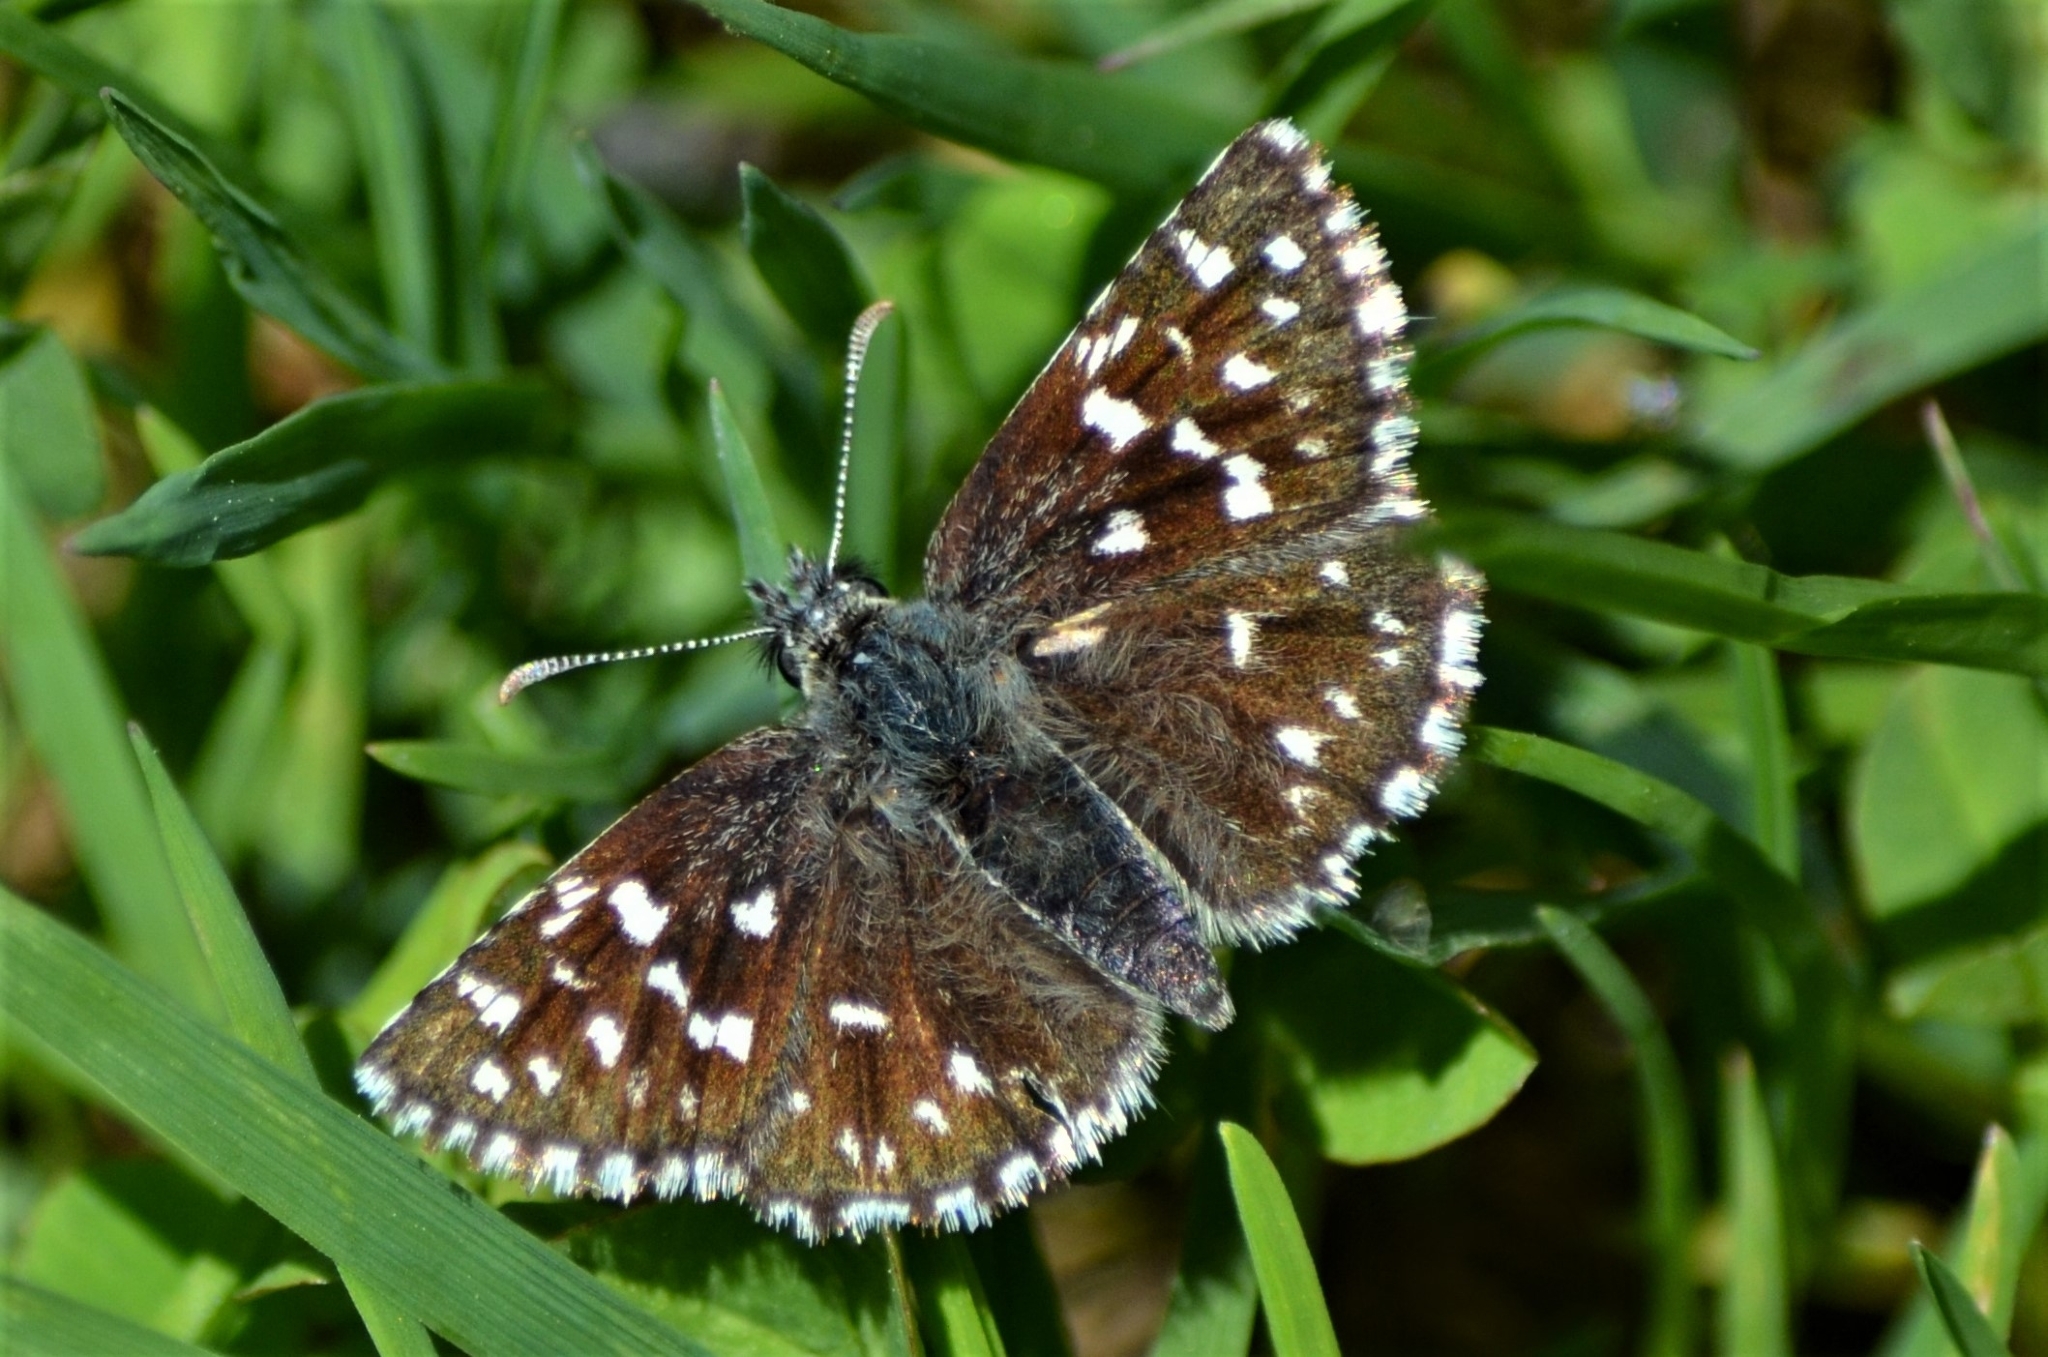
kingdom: Animalia
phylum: Arthropoda
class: Insecta
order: Lepidoptera
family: Hesperiidae
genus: Pyrgus
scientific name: Pyrgus malvae
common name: Grizzled skipper
